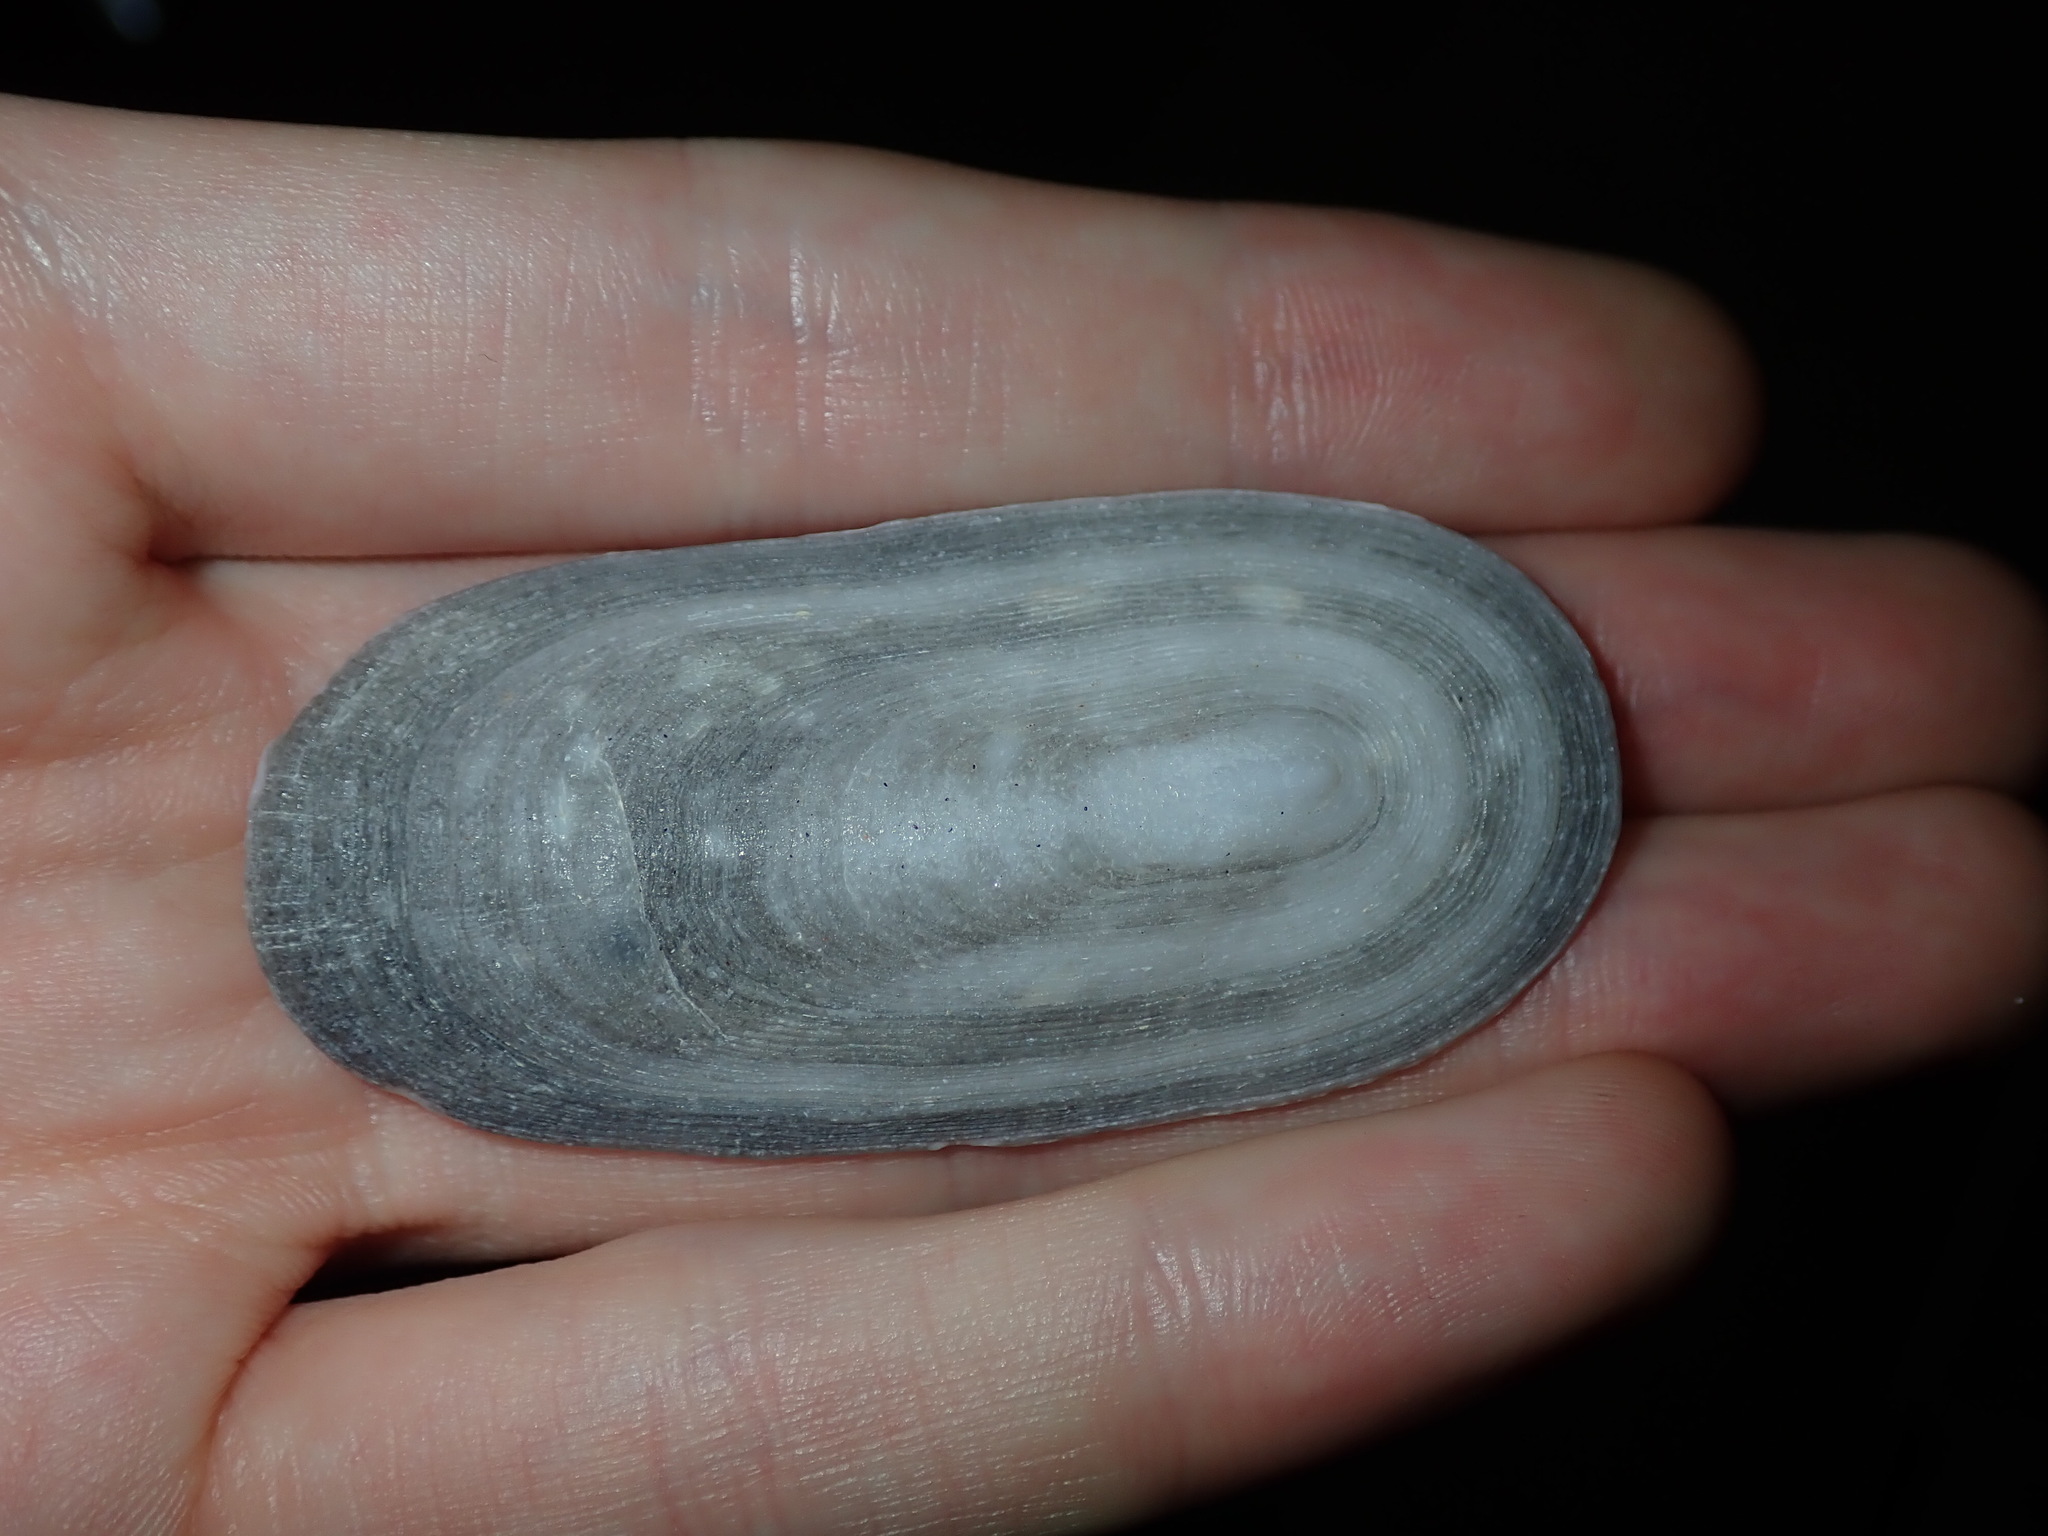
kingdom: Animalia
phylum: Mollusca
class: Gastropoda
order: Lepetellida
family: Fissurellidae
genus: Scutus
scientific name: Scutus antipodes
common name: Duckbill shell
